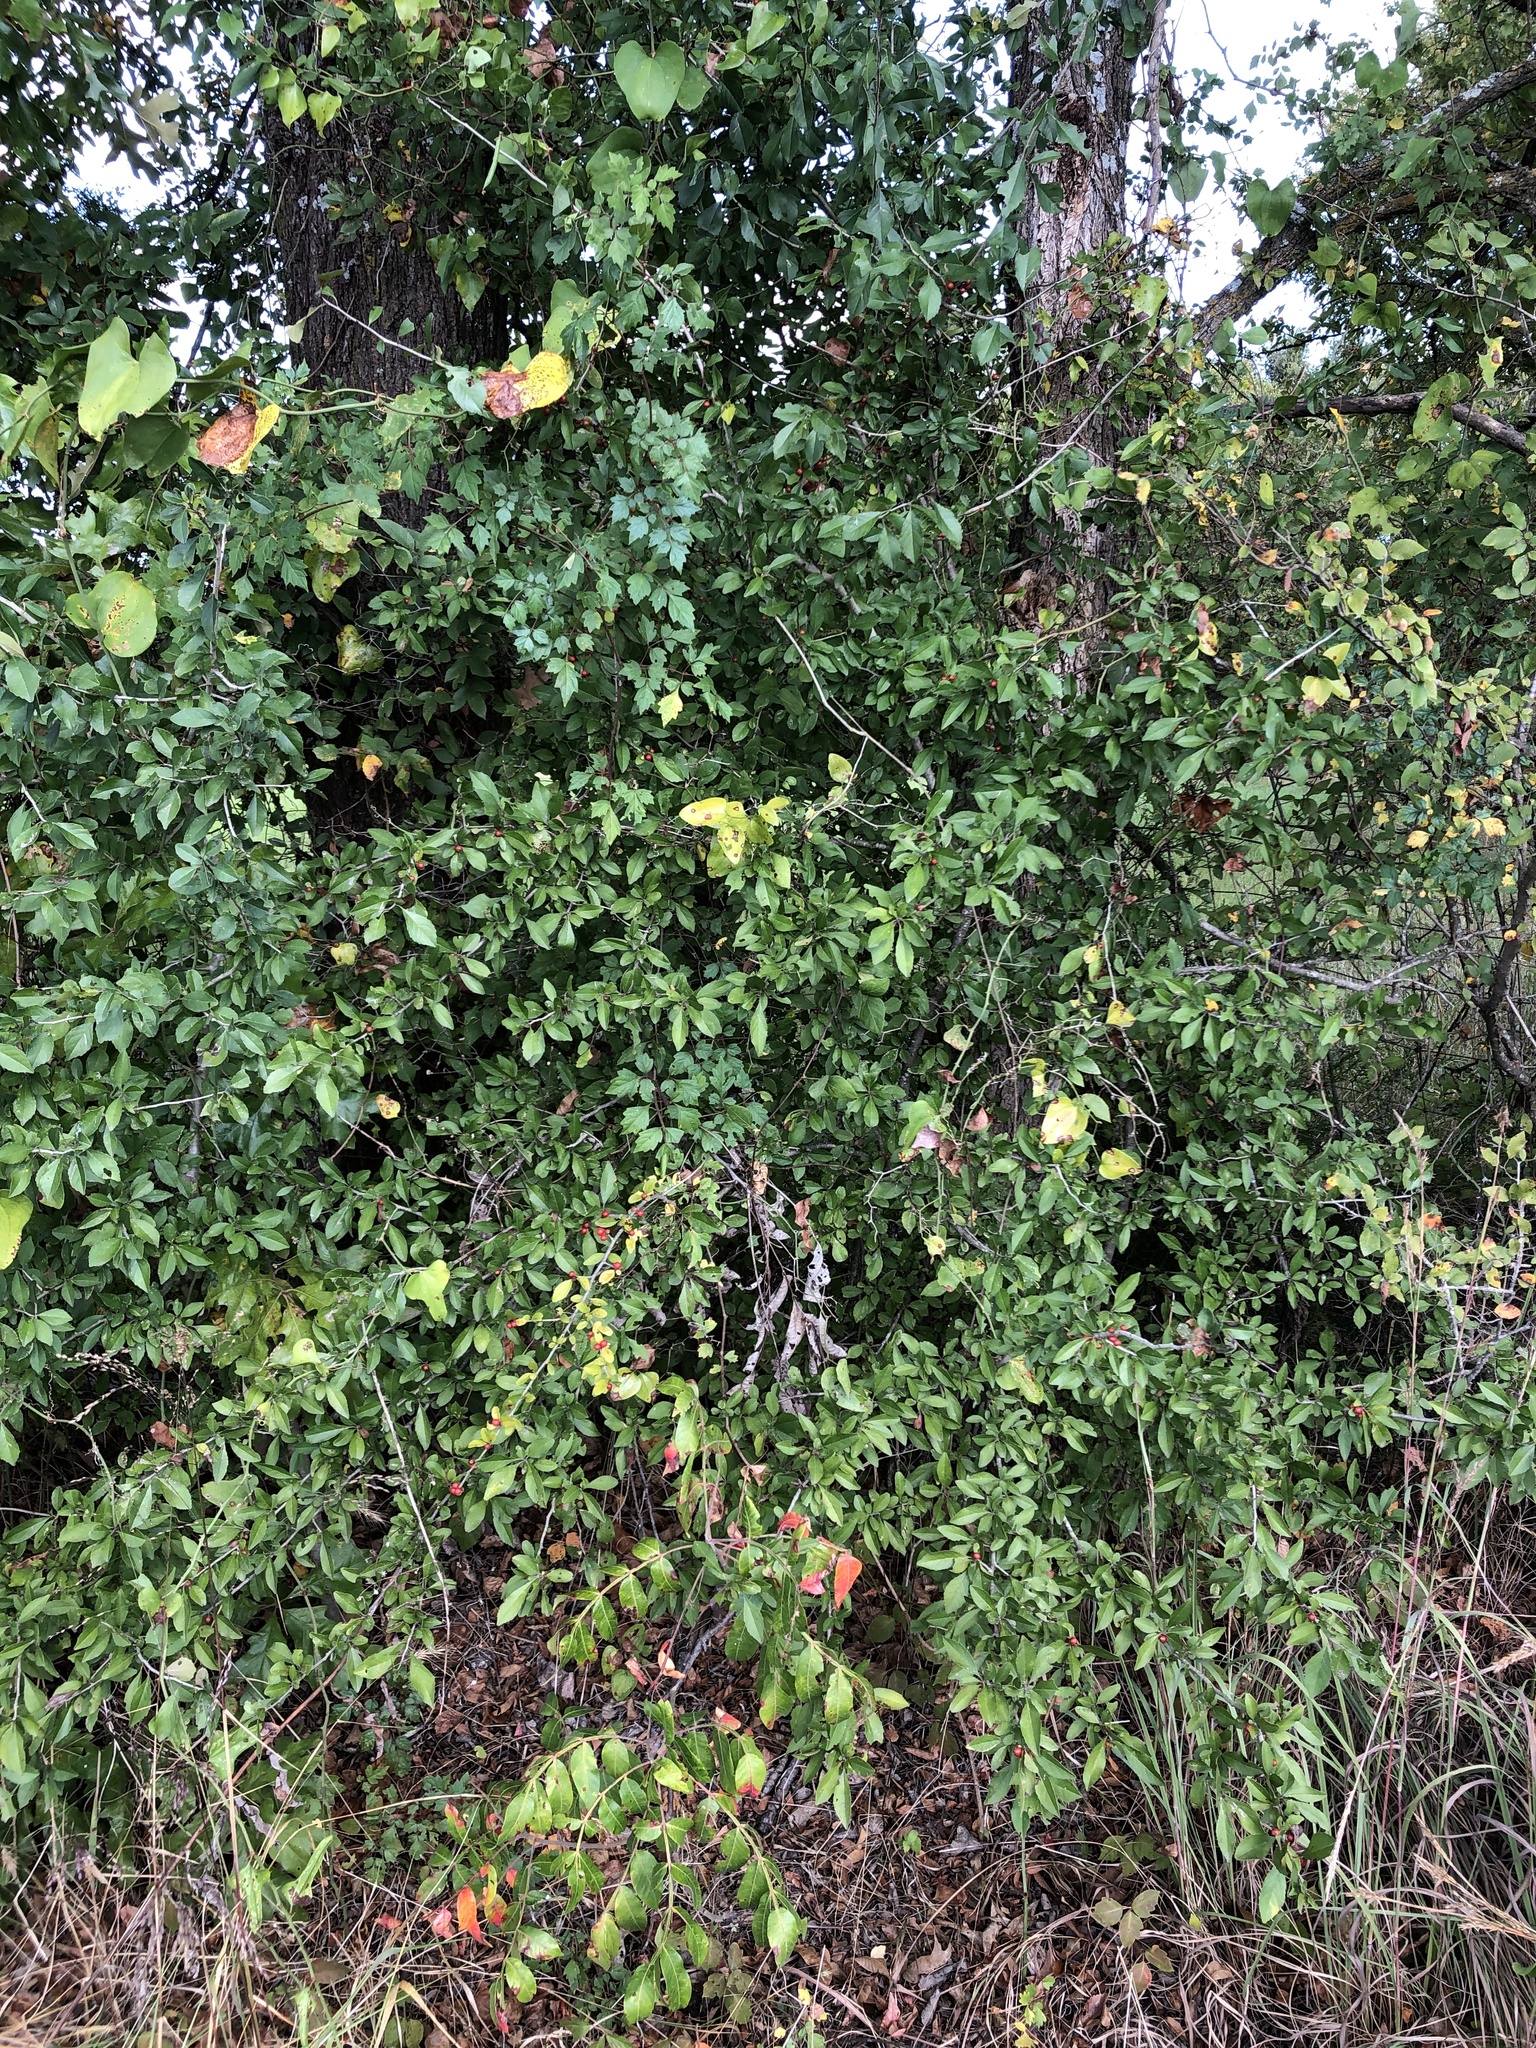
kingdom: Plantae
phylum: Tracheophyta
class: Magnoliopsida
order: Aquifoliales
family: Aquifoliaceae
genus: Ilex
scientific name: Ilex decidua
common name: Possum-haw
